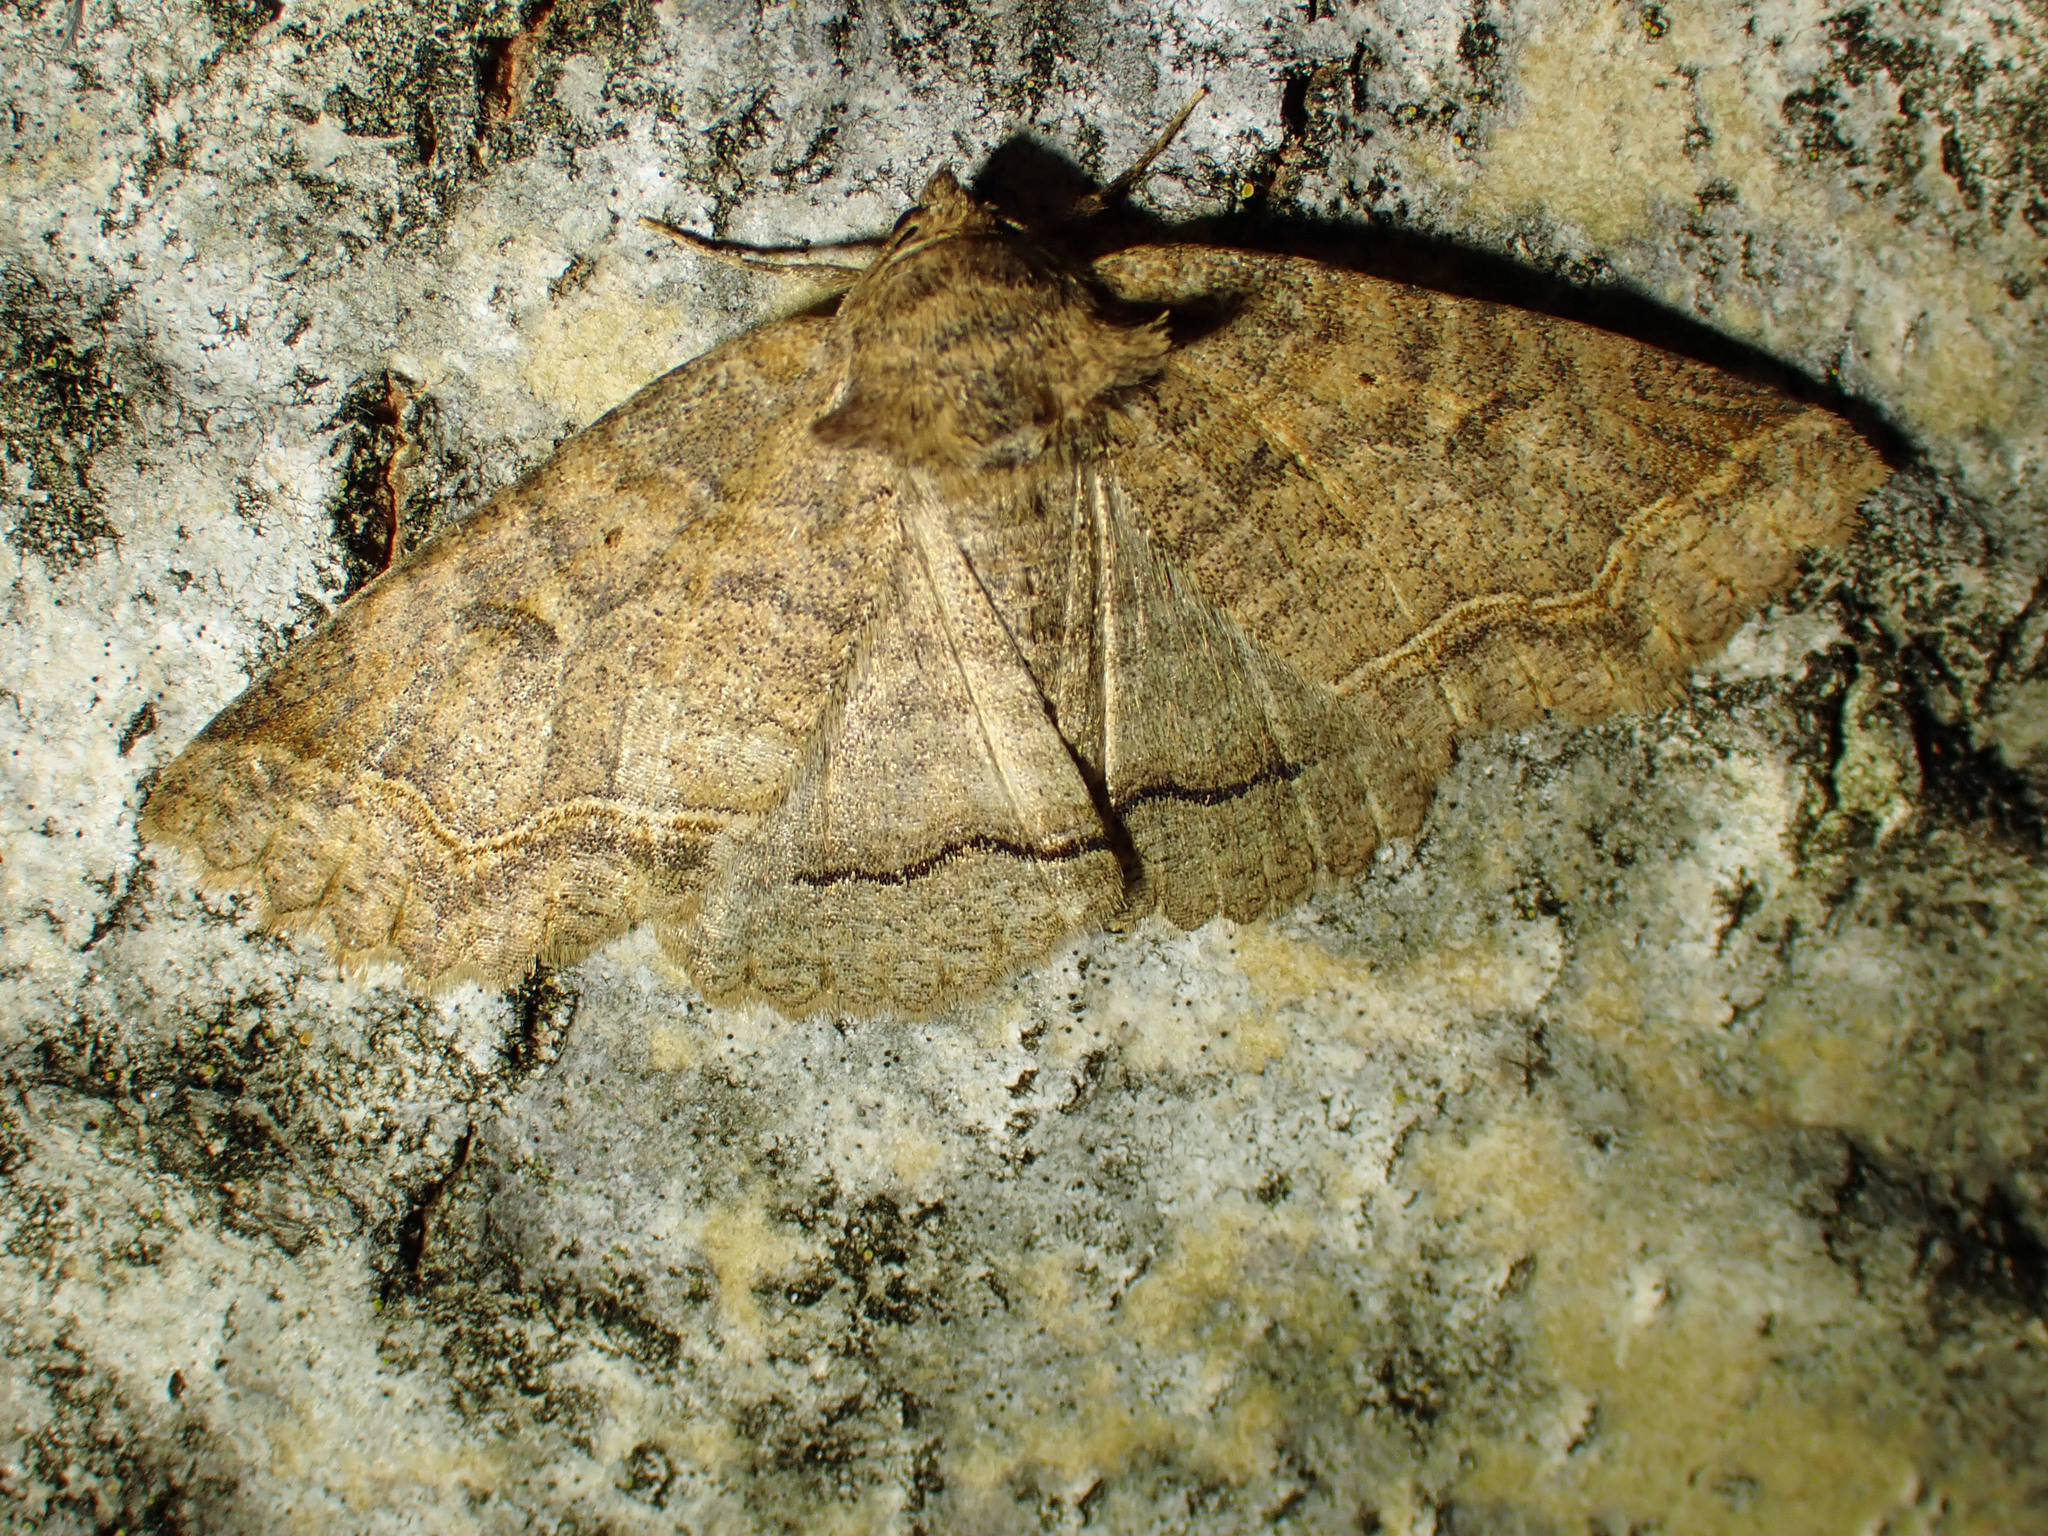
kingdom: Animalia
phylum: Arthropoda
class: Insecta
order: Lepidoptera
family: Erebidae
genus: Zale
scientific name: Zale unilineata
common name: One-lined zale moth
